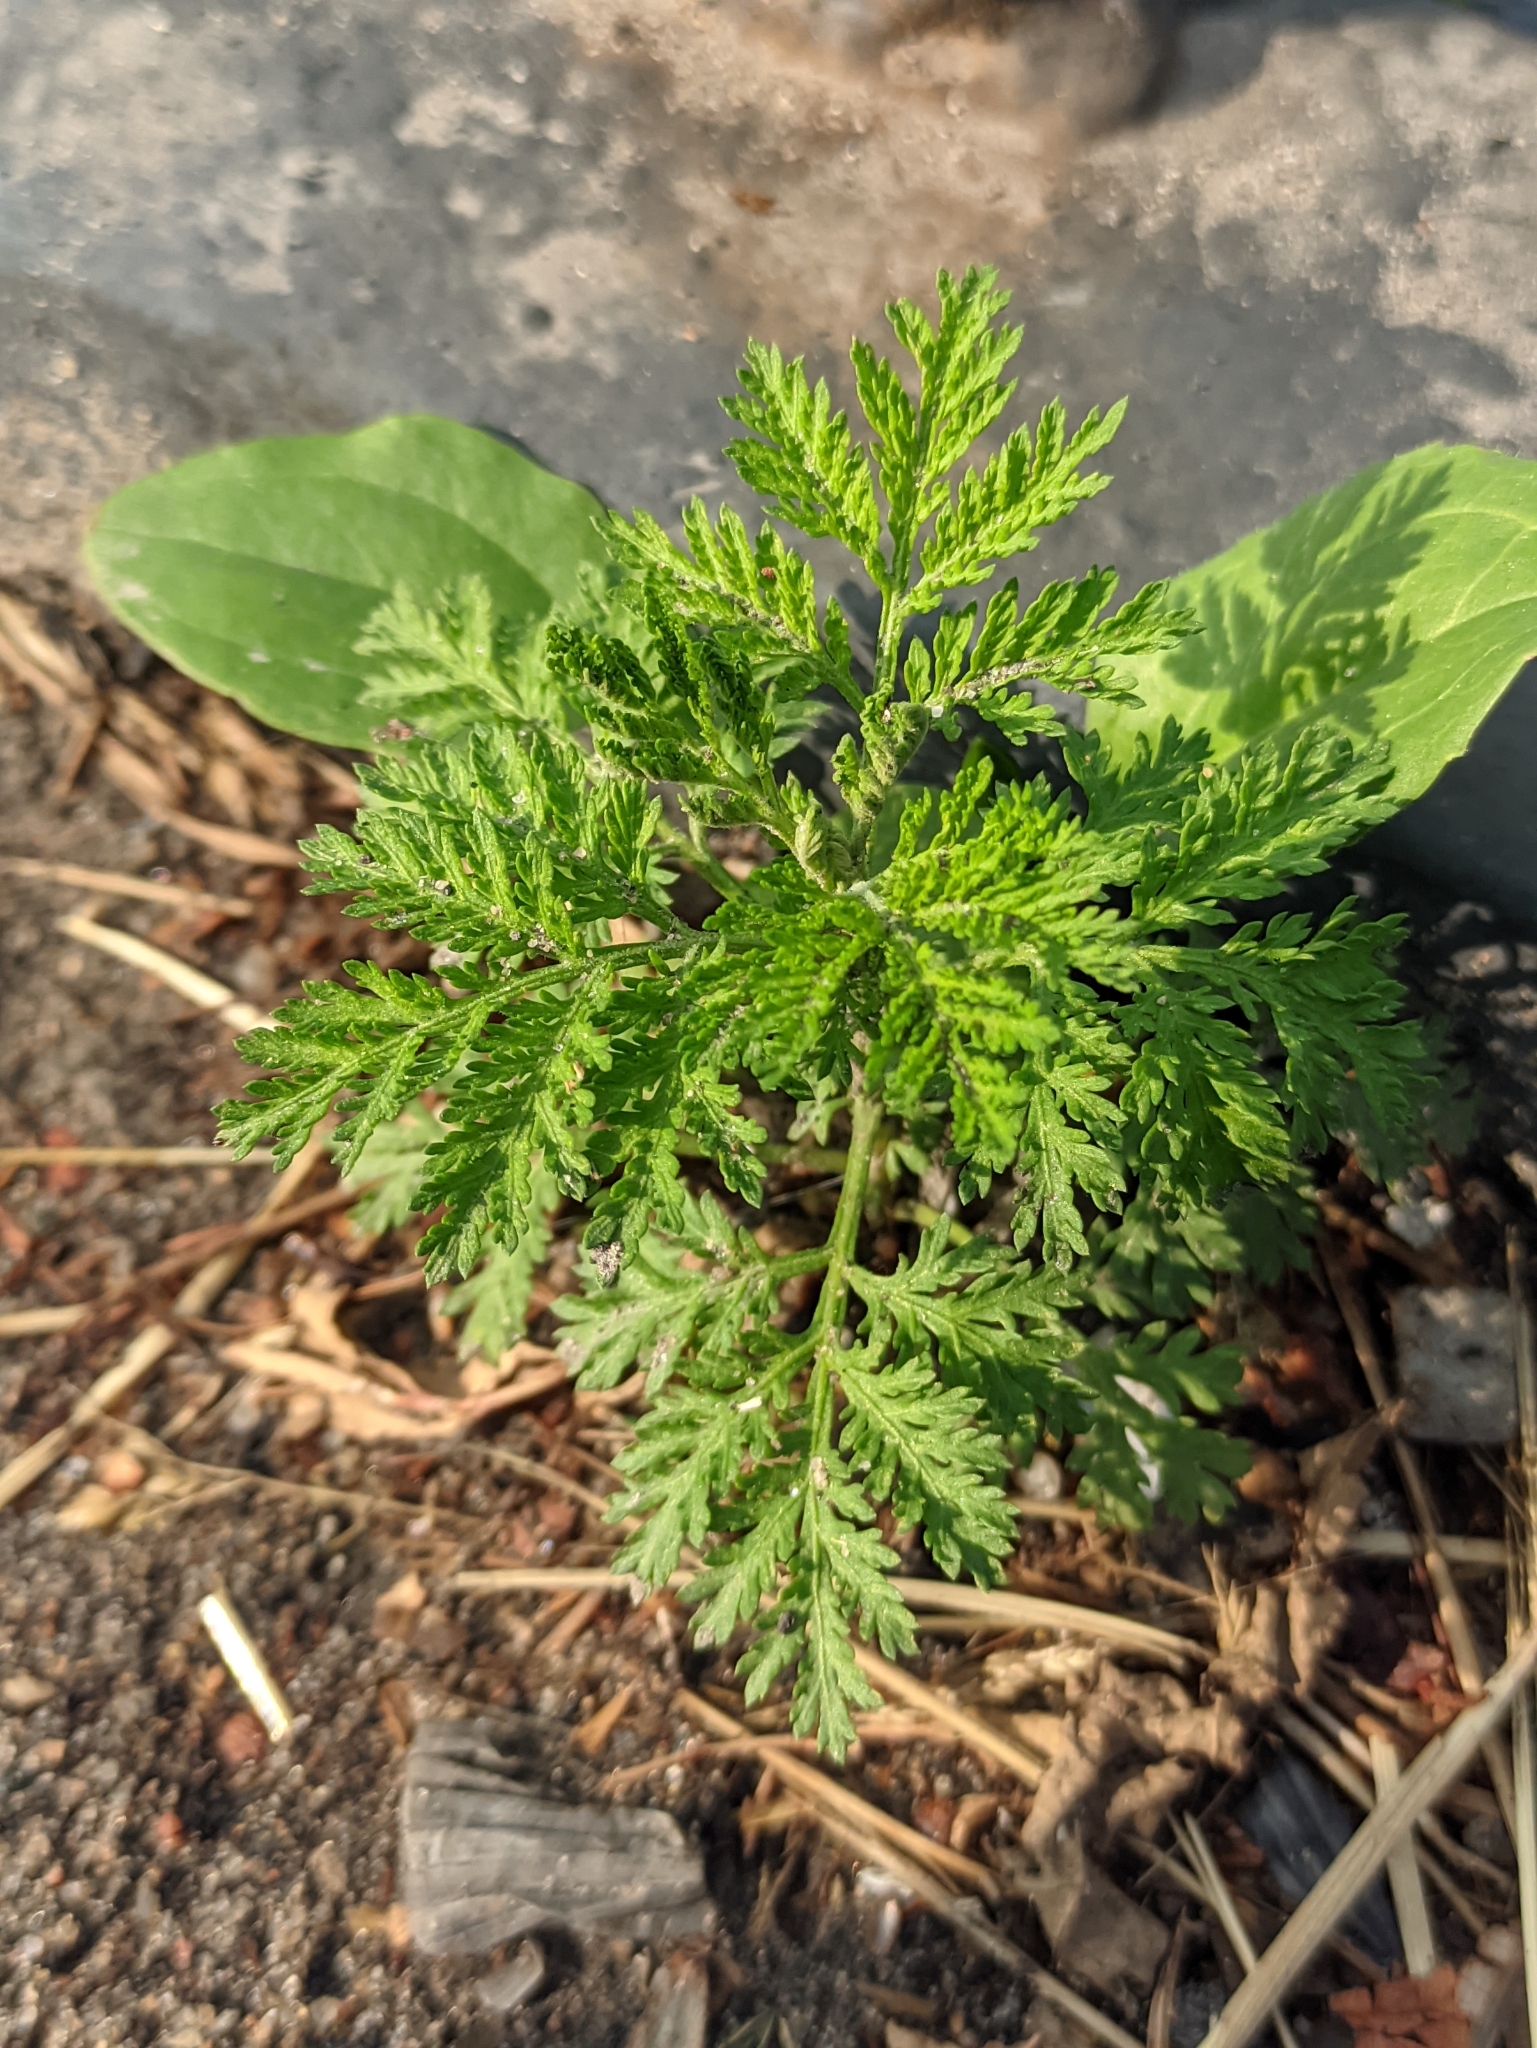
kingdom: Plantae
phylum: Tracheophyta
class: Magnoliopsida
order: Asterales
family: Asteraceae
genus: Cota
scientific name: Cota tinctoria
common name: Golden chamomile
